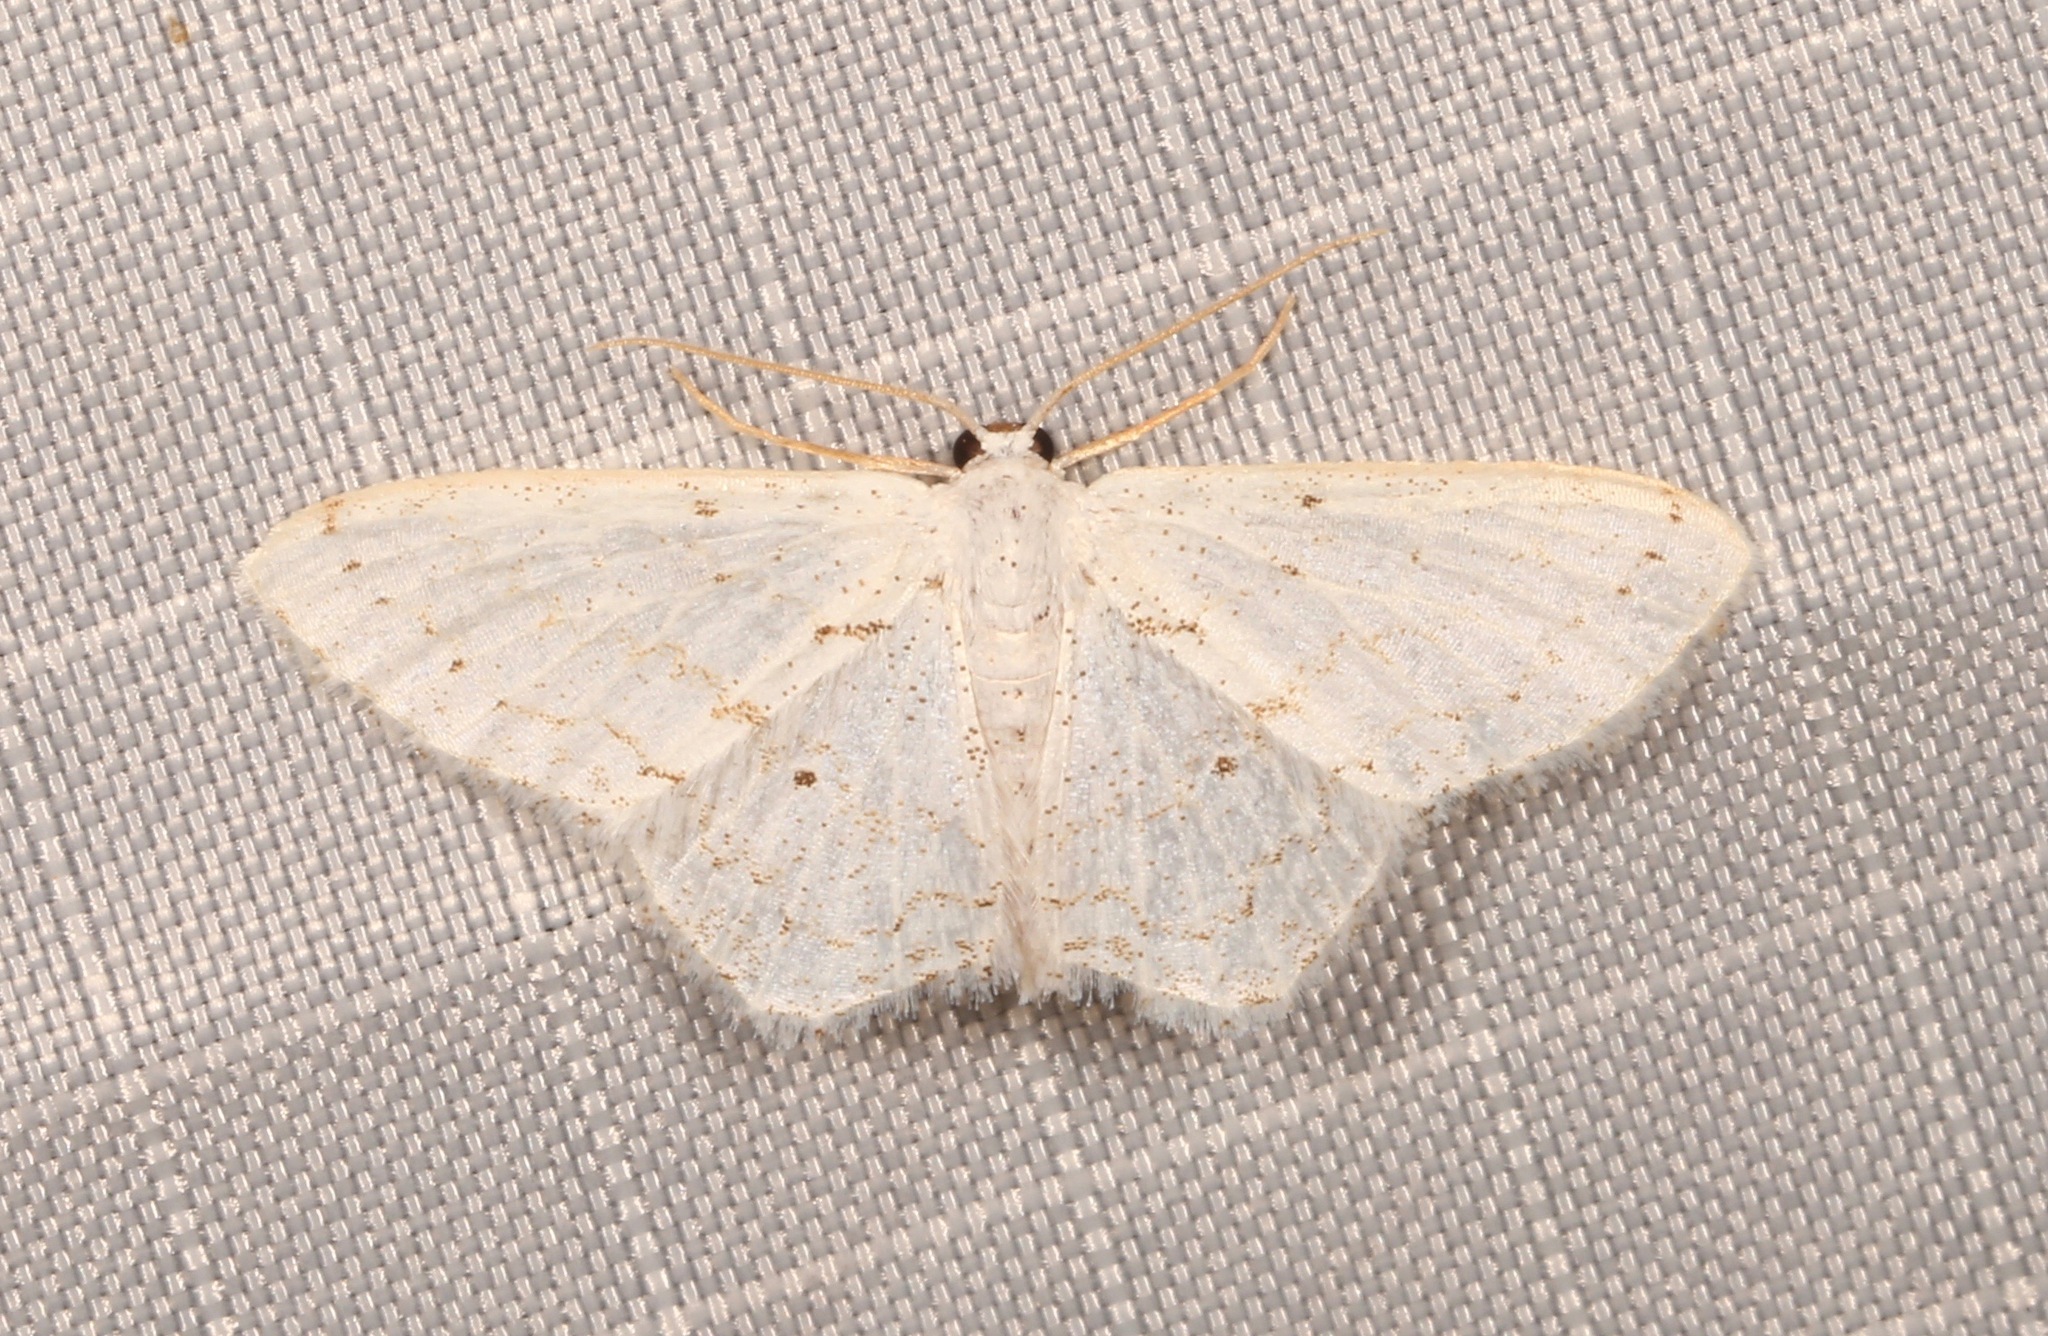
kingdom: Animalia
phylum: Arthropoda
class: Insecta
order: Lepidoptera
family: Geometridae
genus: Idaea
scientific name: Idaea tacturata
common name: Dot-lined wave
